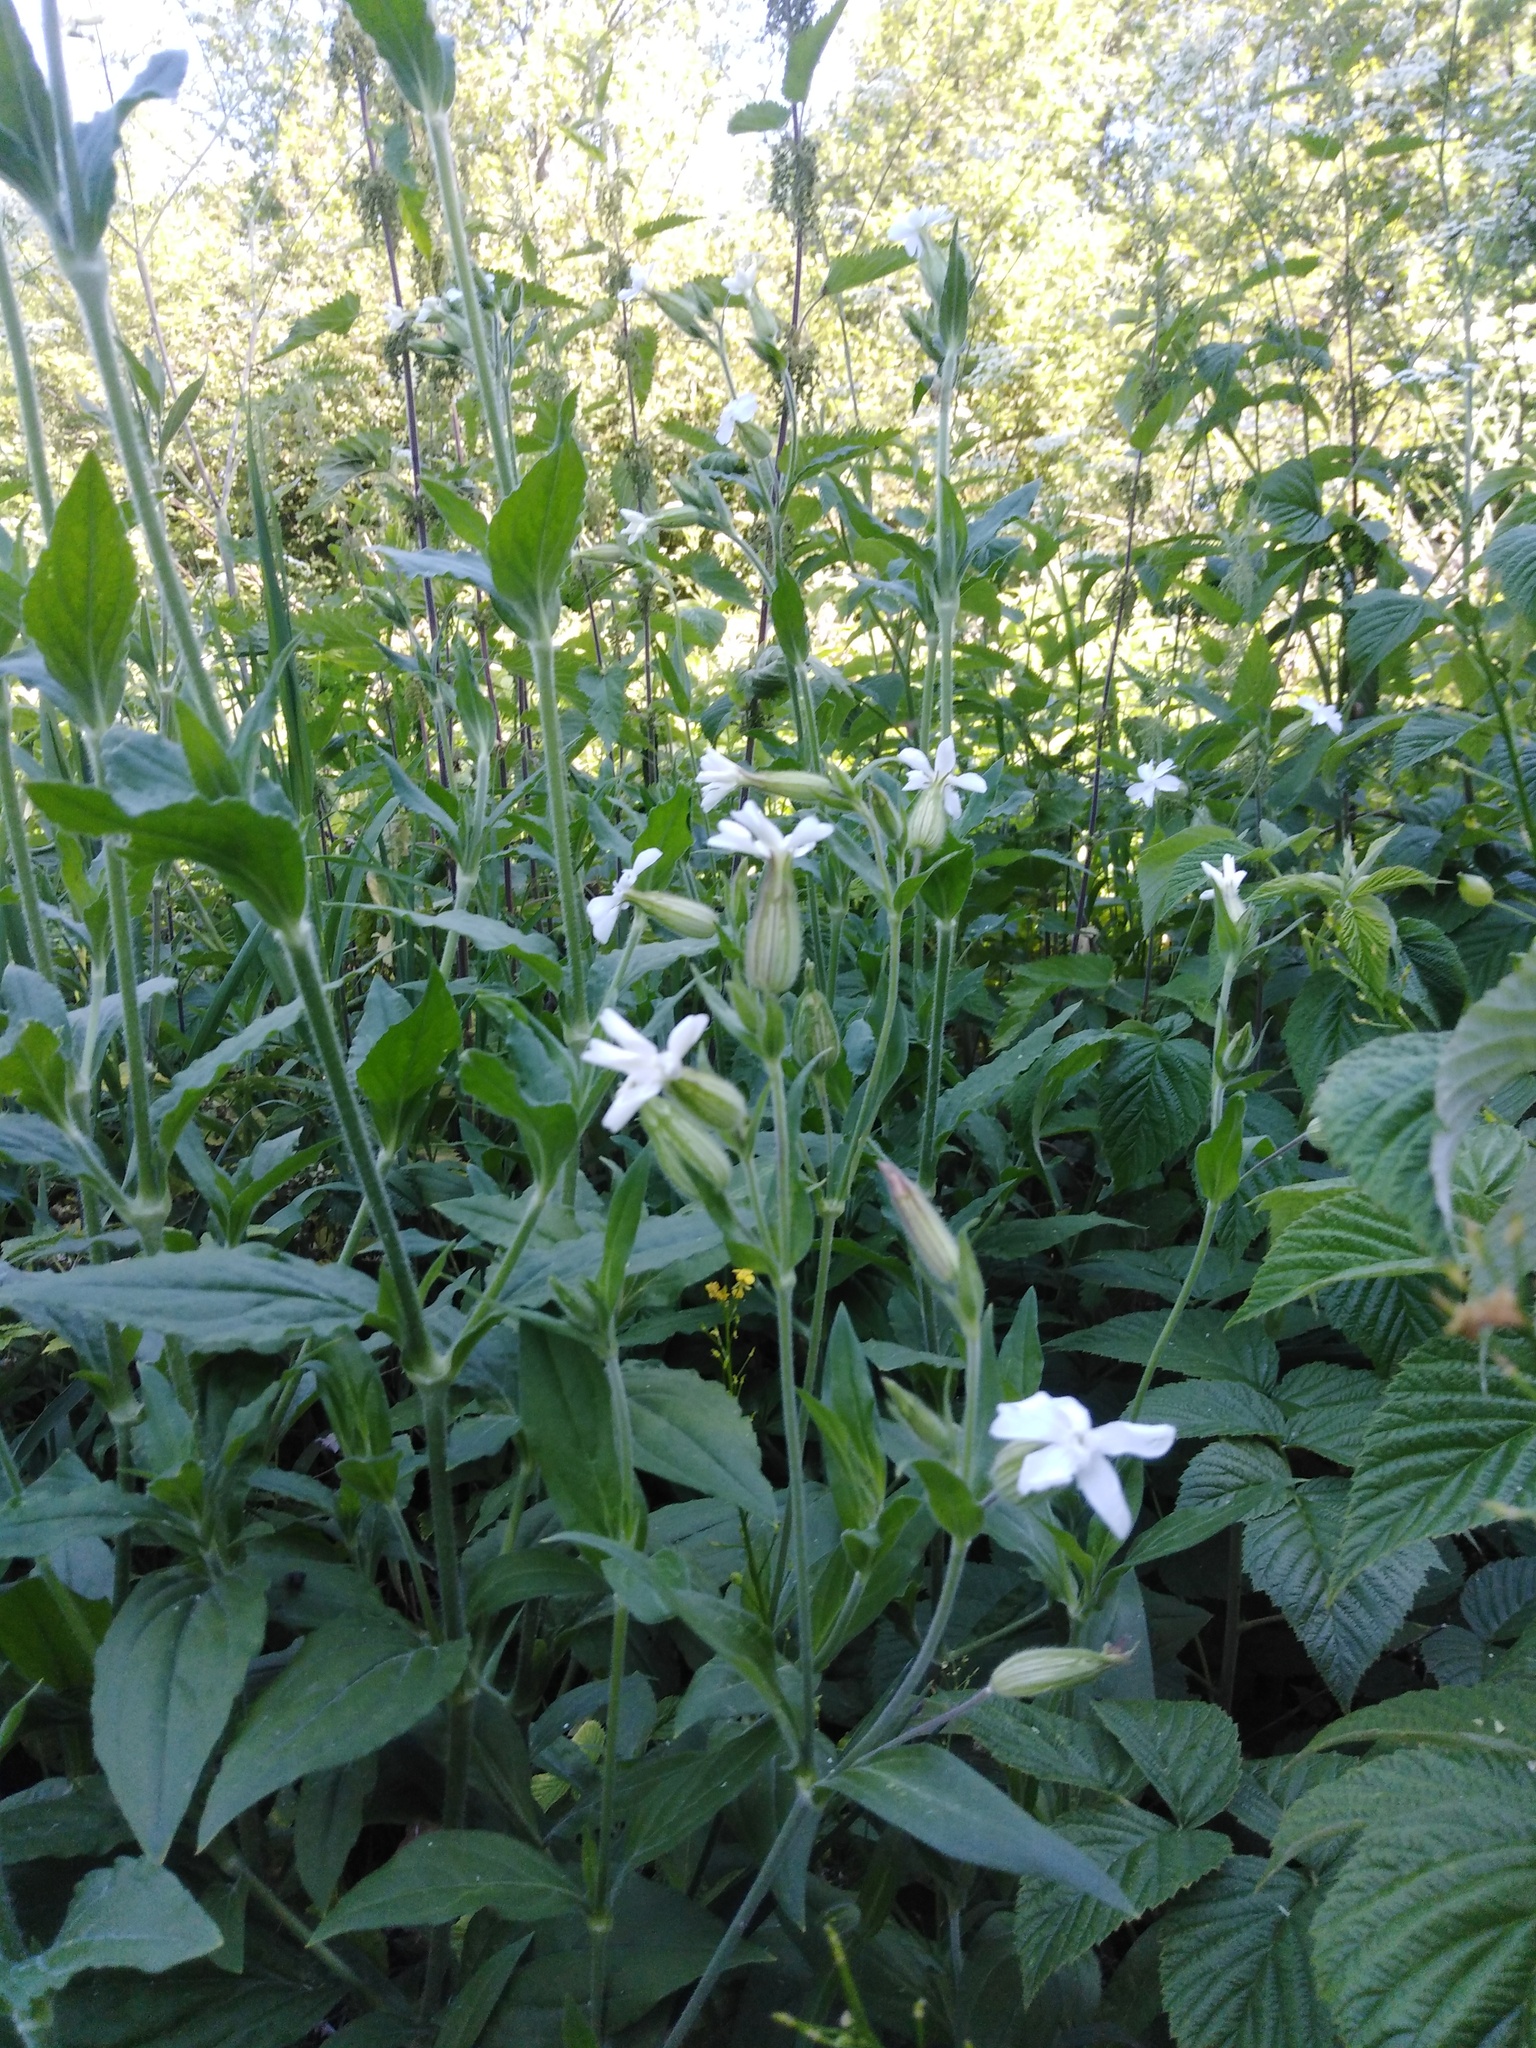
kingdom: Plantae
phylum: Tracheophyta
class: Magnoliopsida
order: Caryophyllales
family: Caryophyllaceae
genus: Silene
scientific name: Silene latifolia
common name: White campion
